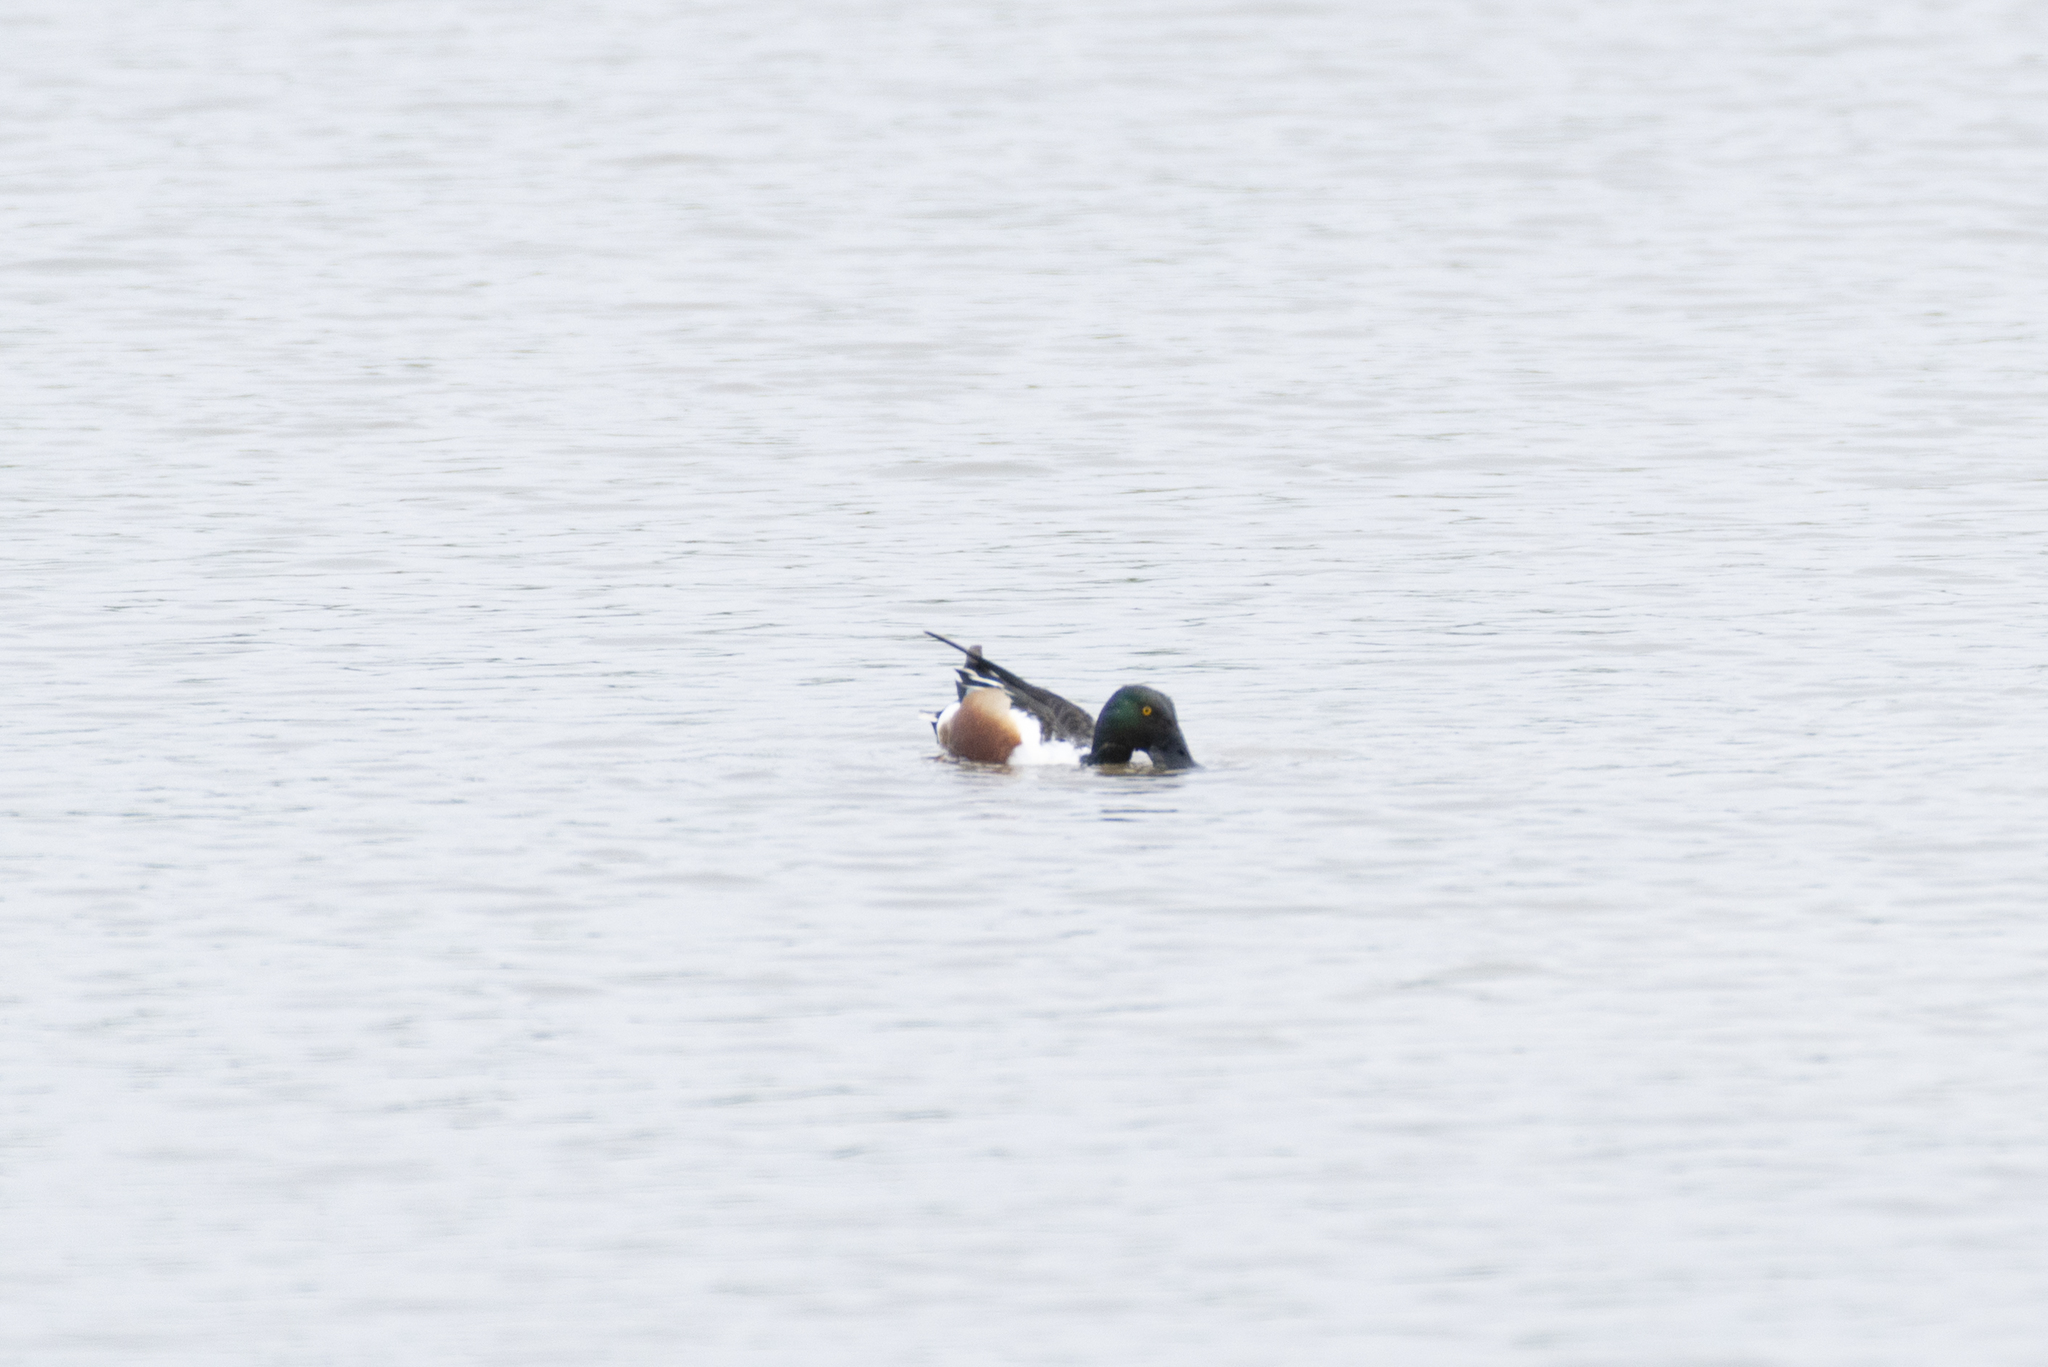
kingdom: Animalia
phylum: Chordata
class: Aves
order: Anseriformes
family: Anatidae
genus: Spatula
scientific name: Spatula clypeata
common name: Northern shoveler
